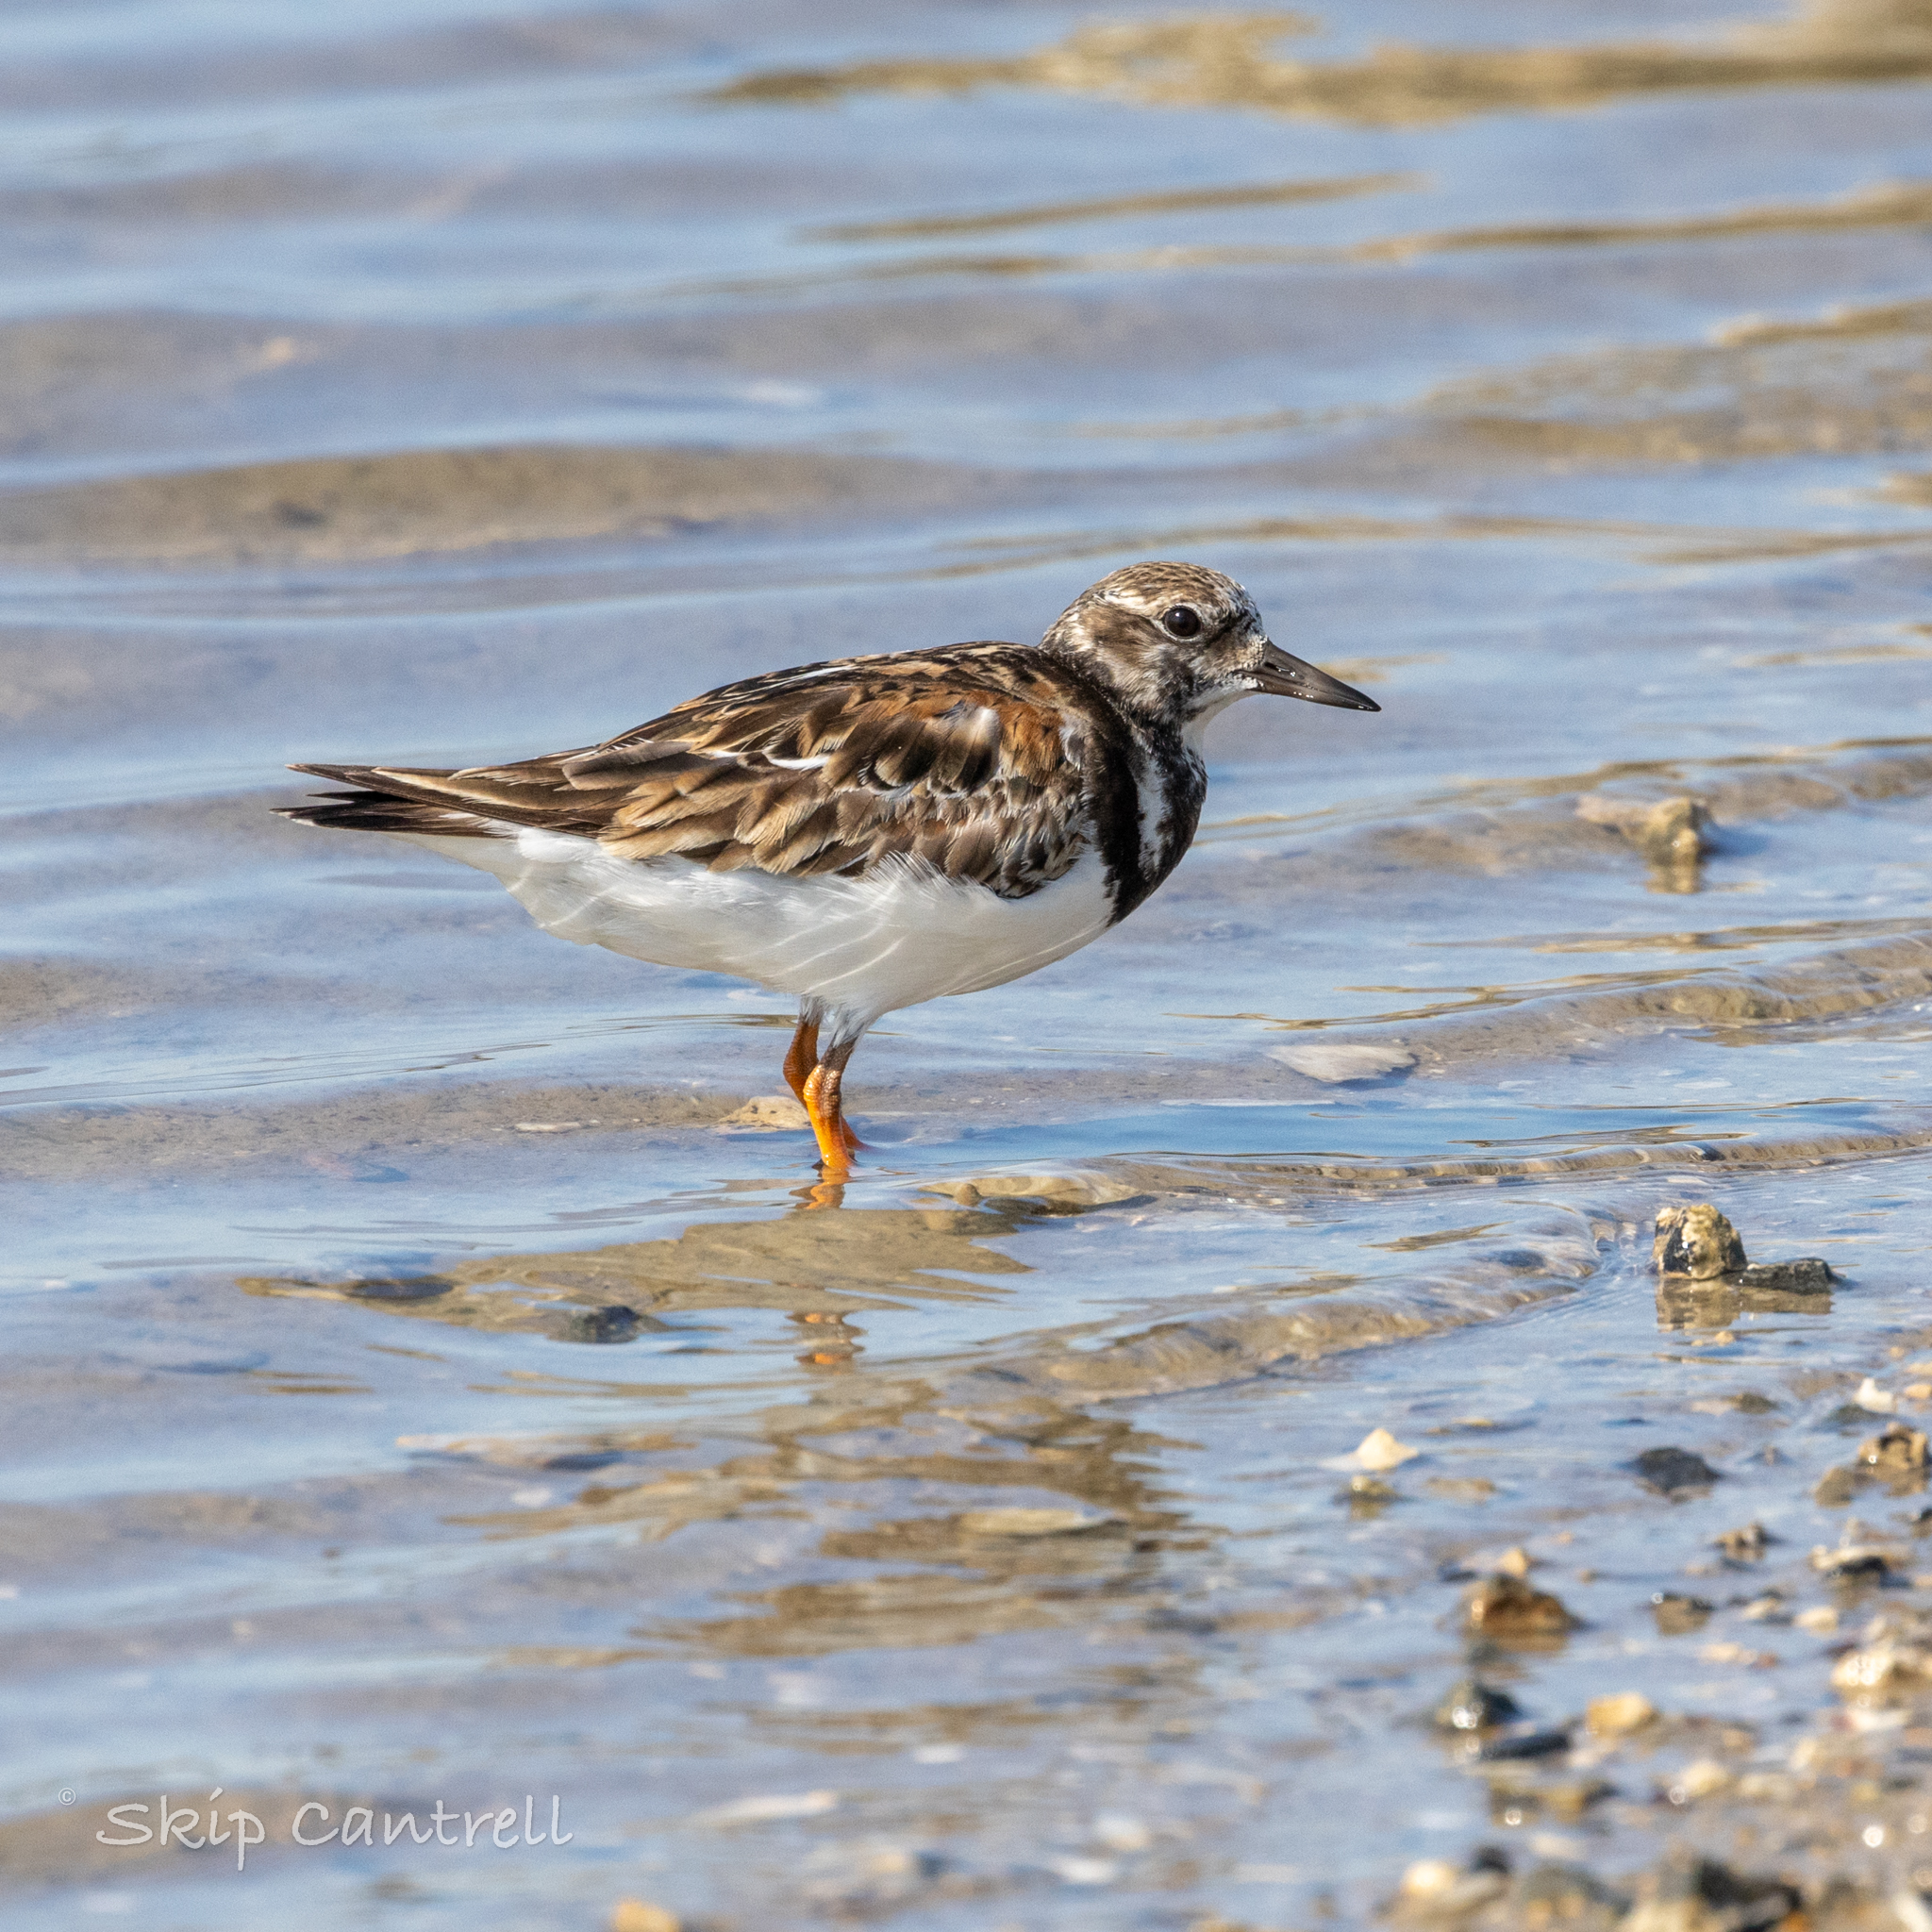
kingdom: Animalia
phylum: Chordata
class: Aves
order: Charadriiformes
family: Scolopacidae
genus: Arenaria
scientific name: Arenaria interpres
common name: Ruddy turnstone
